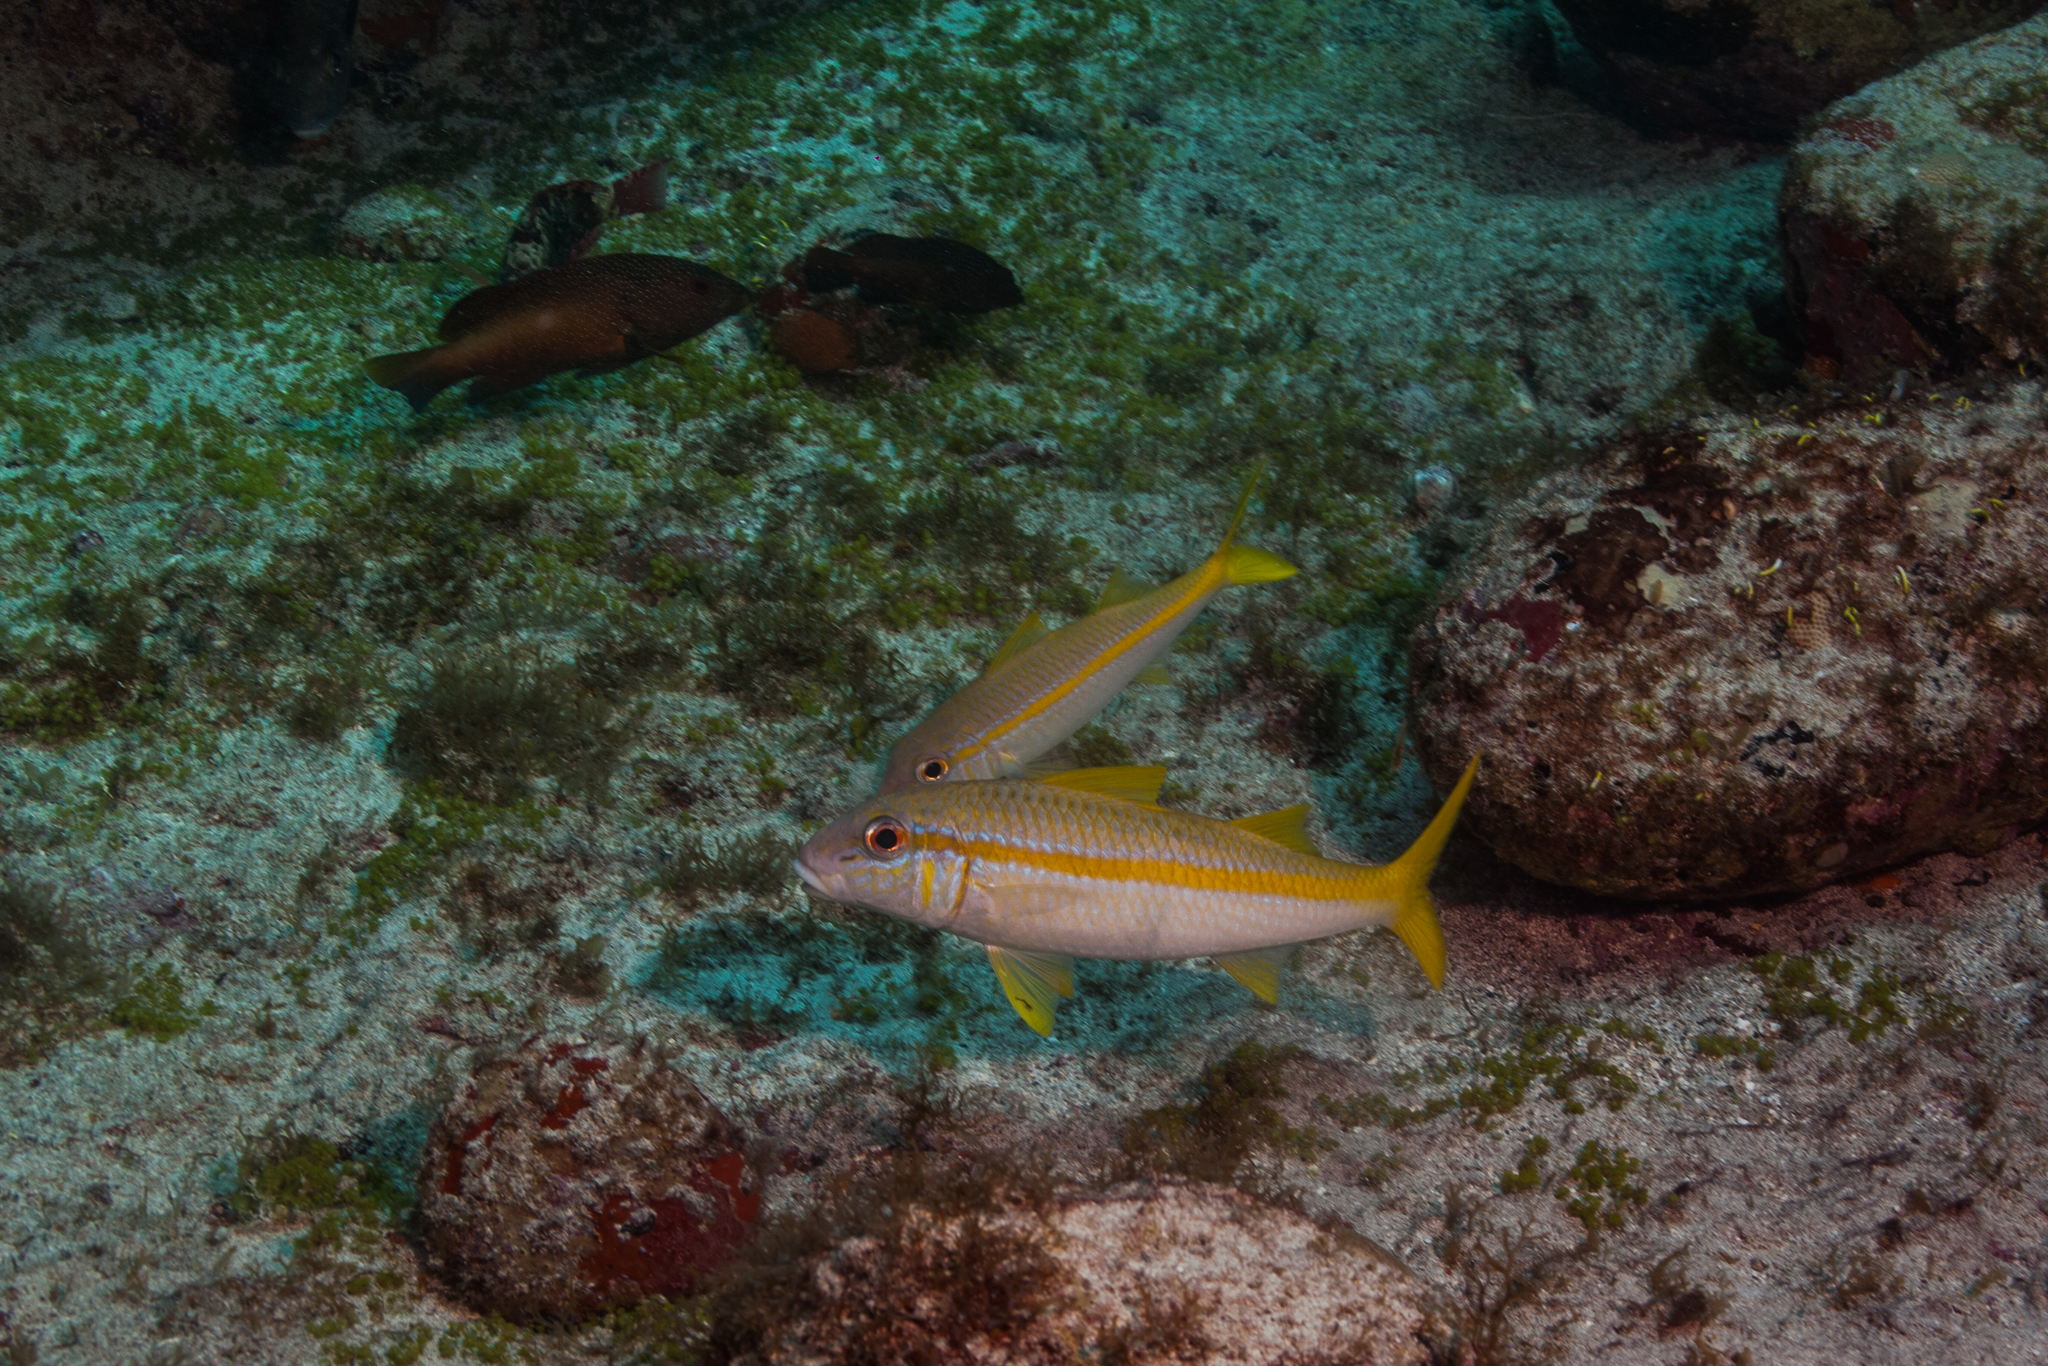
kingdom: Animalia
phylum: Chordata
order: Perciformes
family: Mullidae
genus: Mulloidichthys
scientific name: Mulloidichthys martinicus
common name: Yellow goatfish
